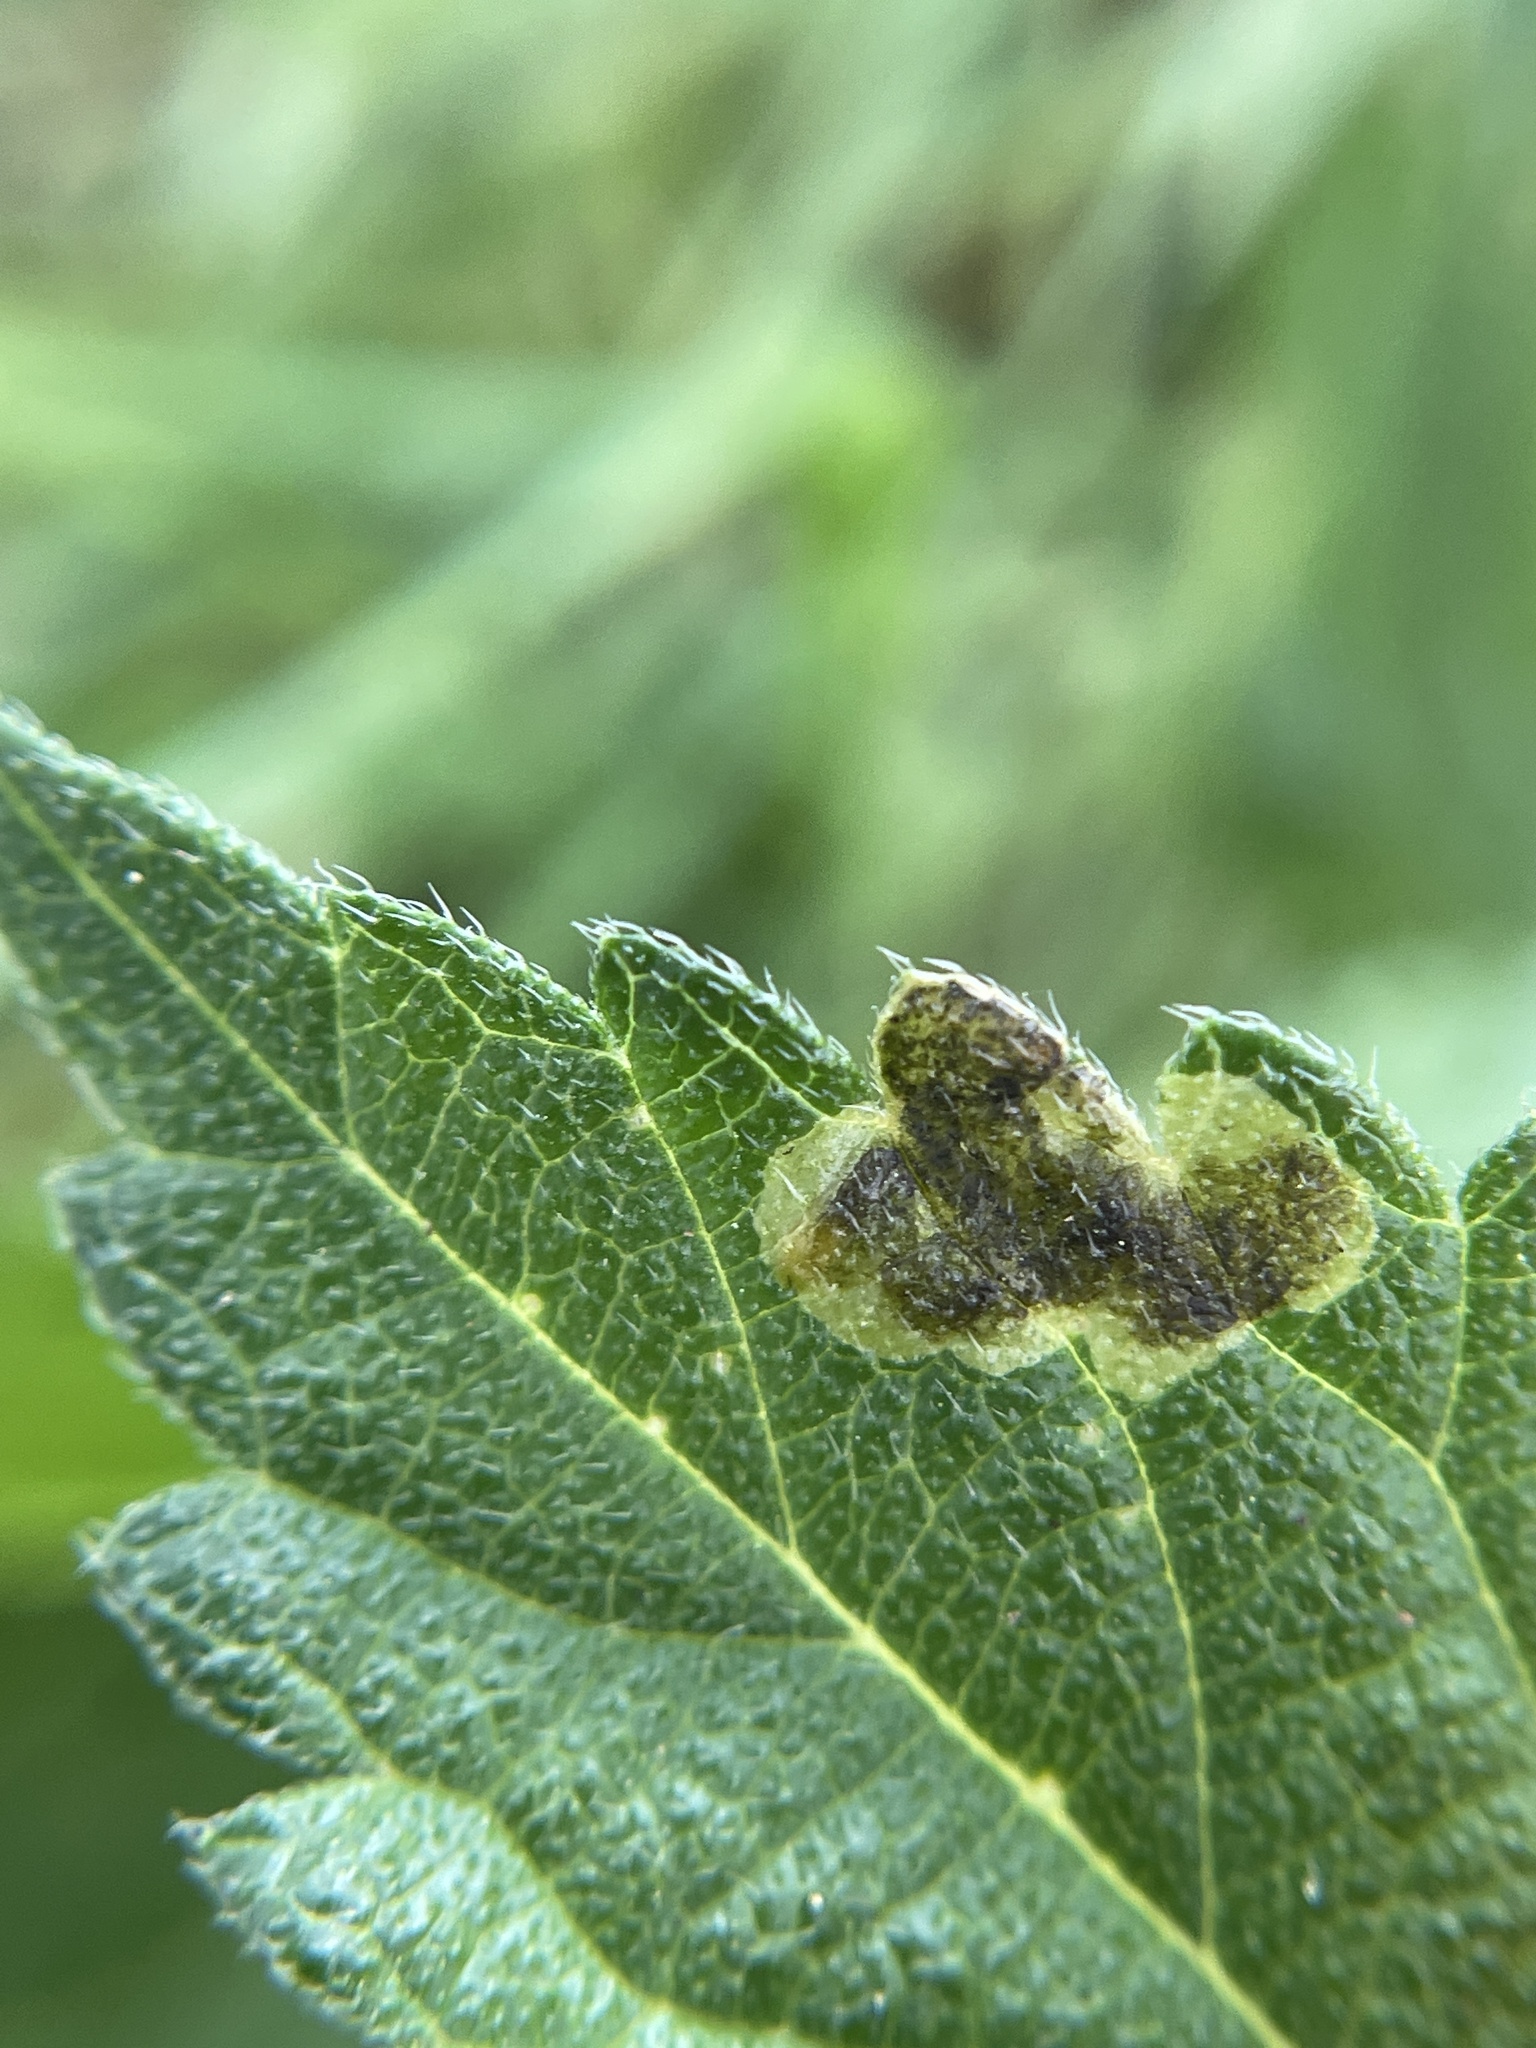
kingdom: Animalia
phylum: Arthropoda
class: Insecta
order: Diptera
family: Agromyzidae
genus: Calycomyza
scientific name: Calycomyza lantanae
